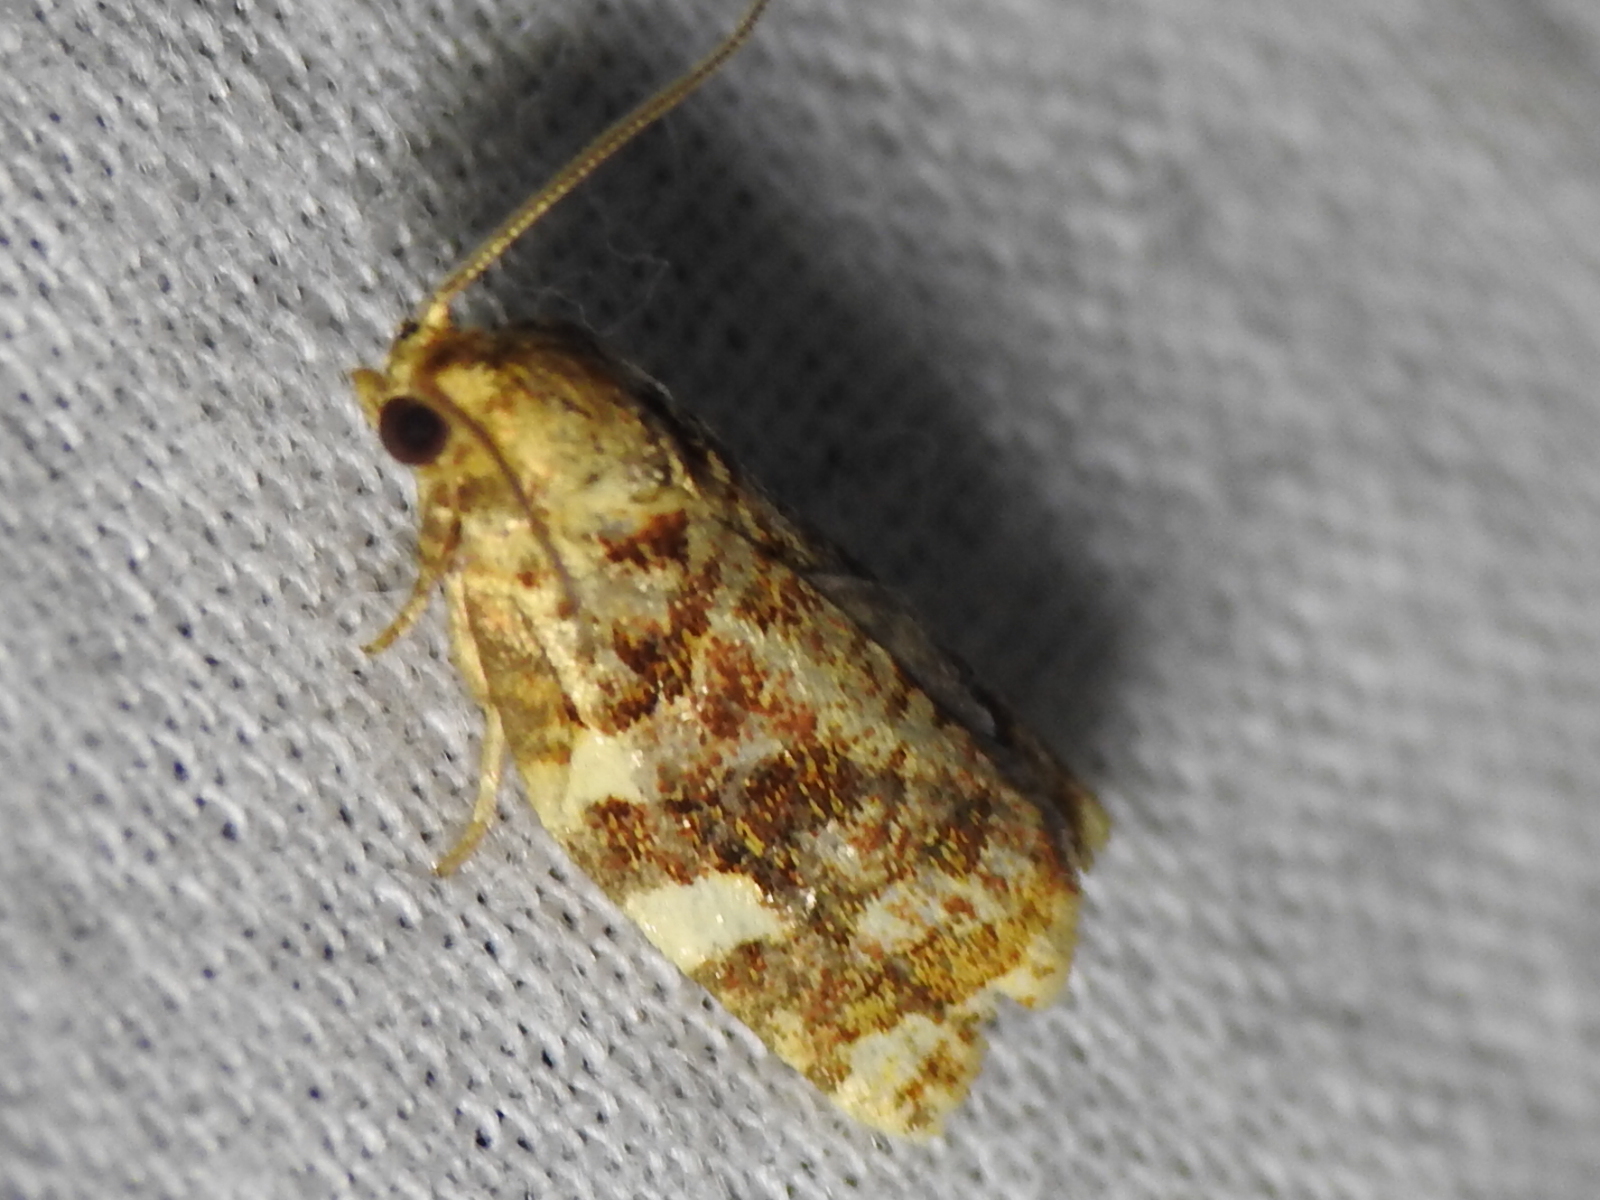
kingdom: Animalia
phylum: Arthropoda
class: Insecta
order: Lepidoptera
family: Tortricidae
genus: Archips
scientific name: Archips argyrospila
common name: Fruit-tree leafroller moth
